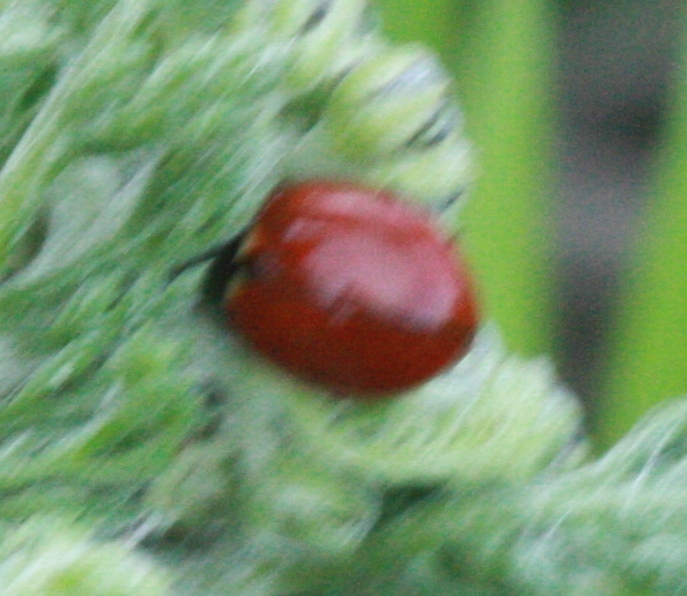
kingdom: Animalia
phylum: Arthropoda
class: Insecta
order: Coleoptera
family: Coccinellidae
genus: Coccinella
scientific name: Coccinella californica
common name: Lady beetle
